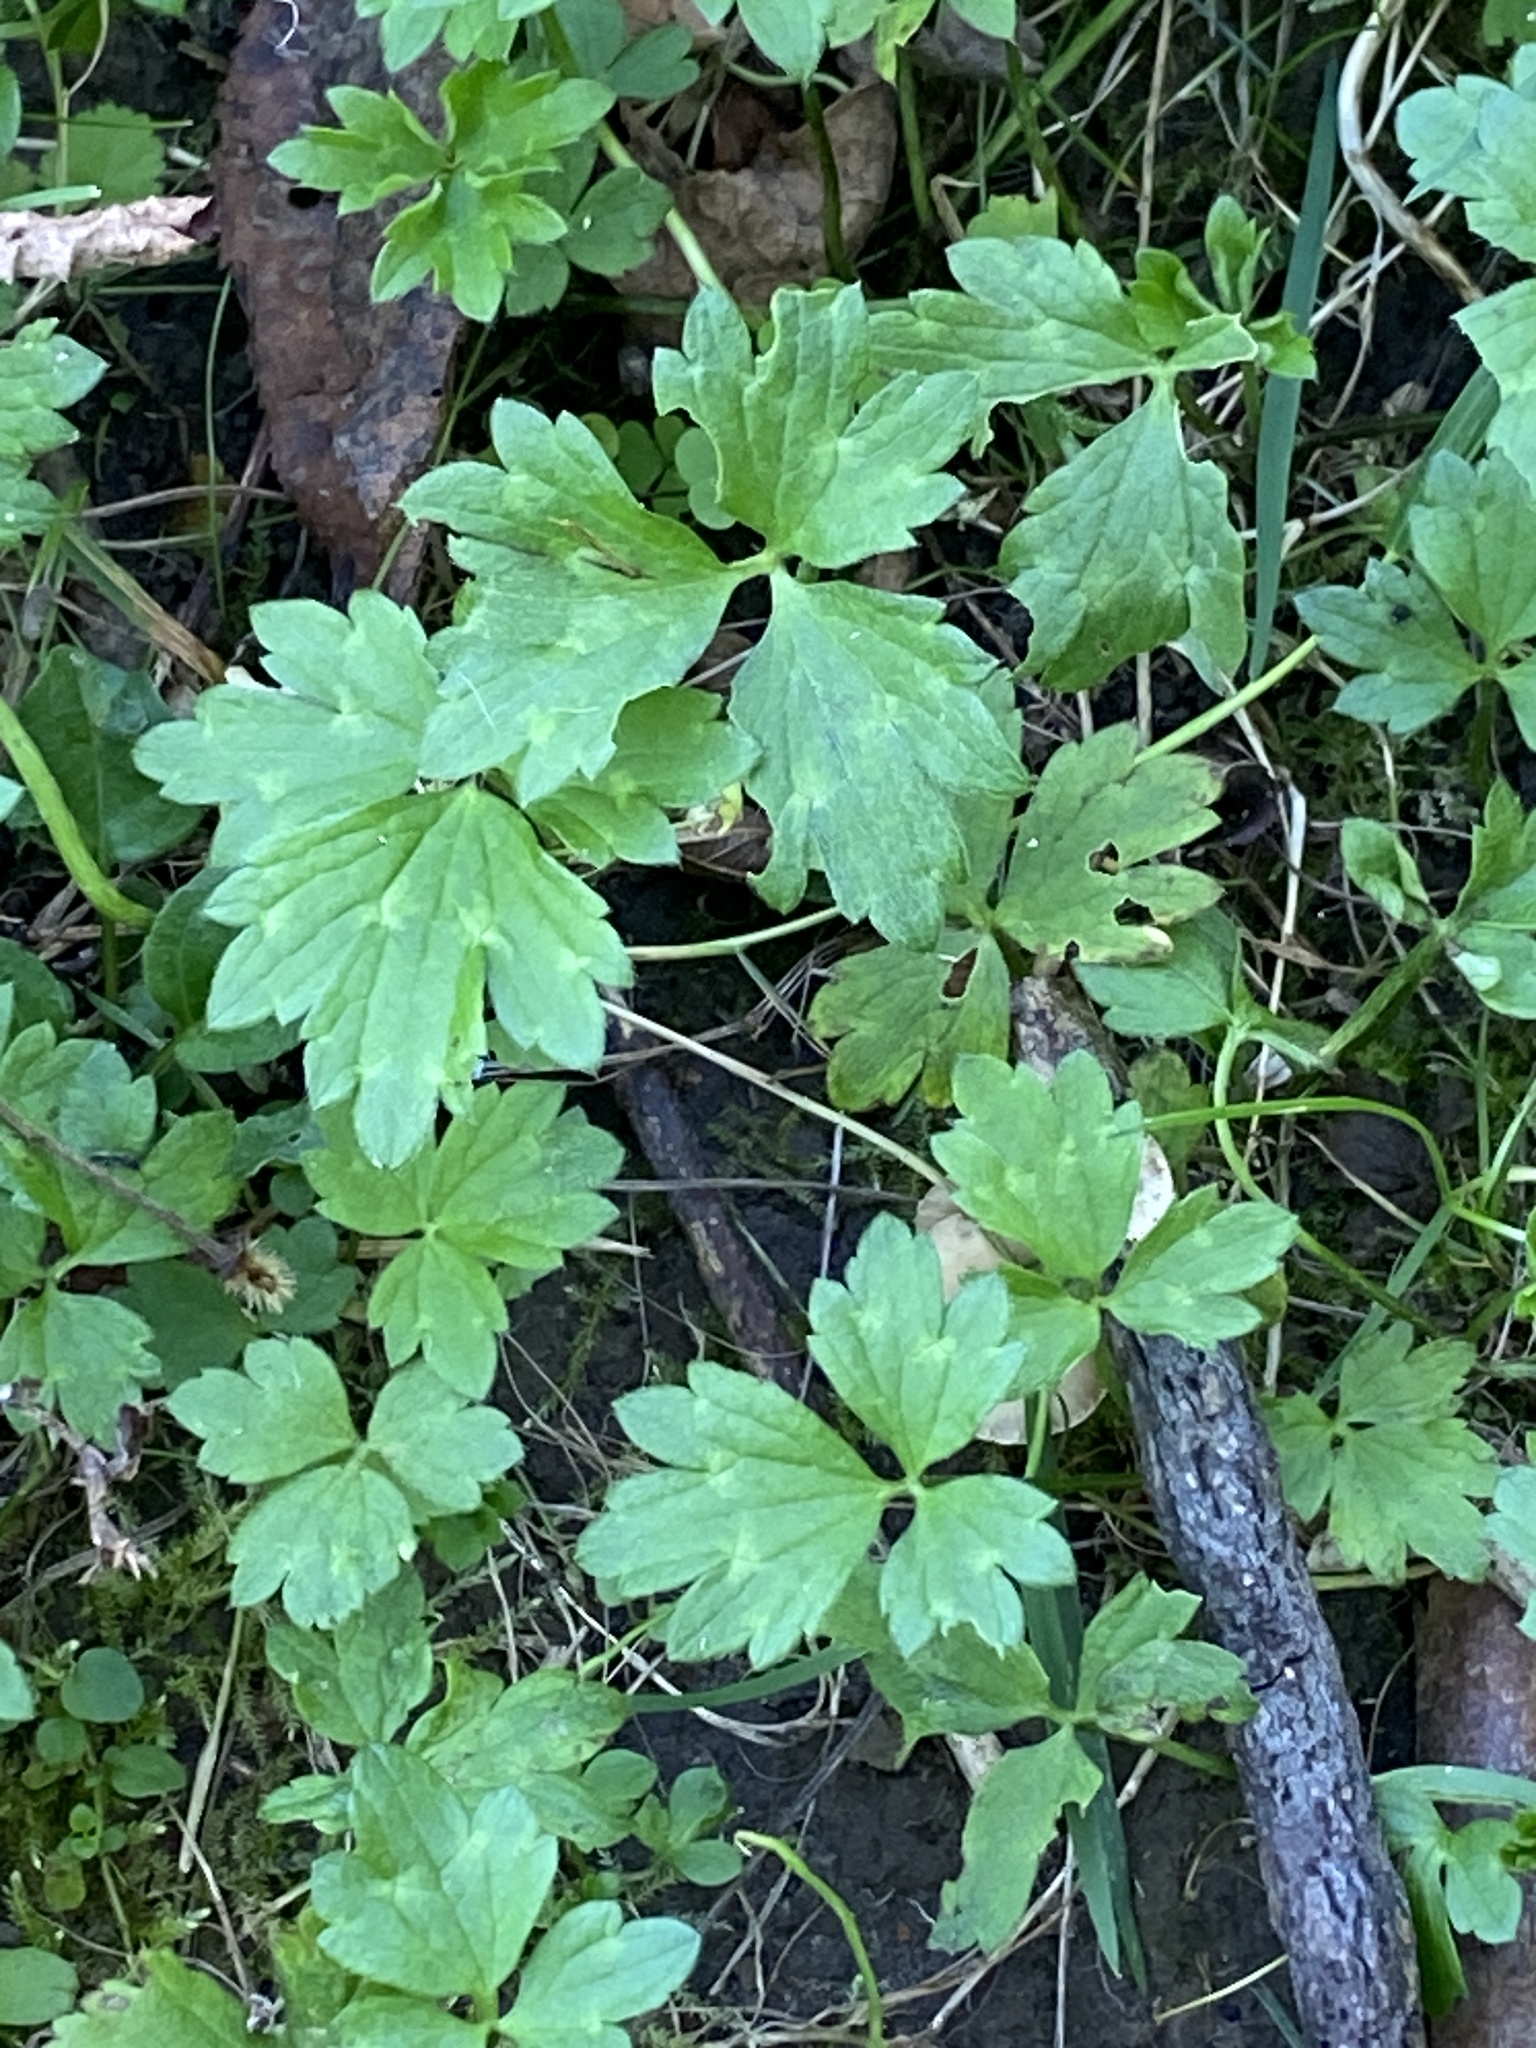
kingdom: Plantae
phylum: Tracheophyta
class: Magnoliopsida
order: Ranunculales
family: Ranunculaceae
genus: Ranunculus
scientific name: Ranunculus repens
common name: Creeping buttercup
